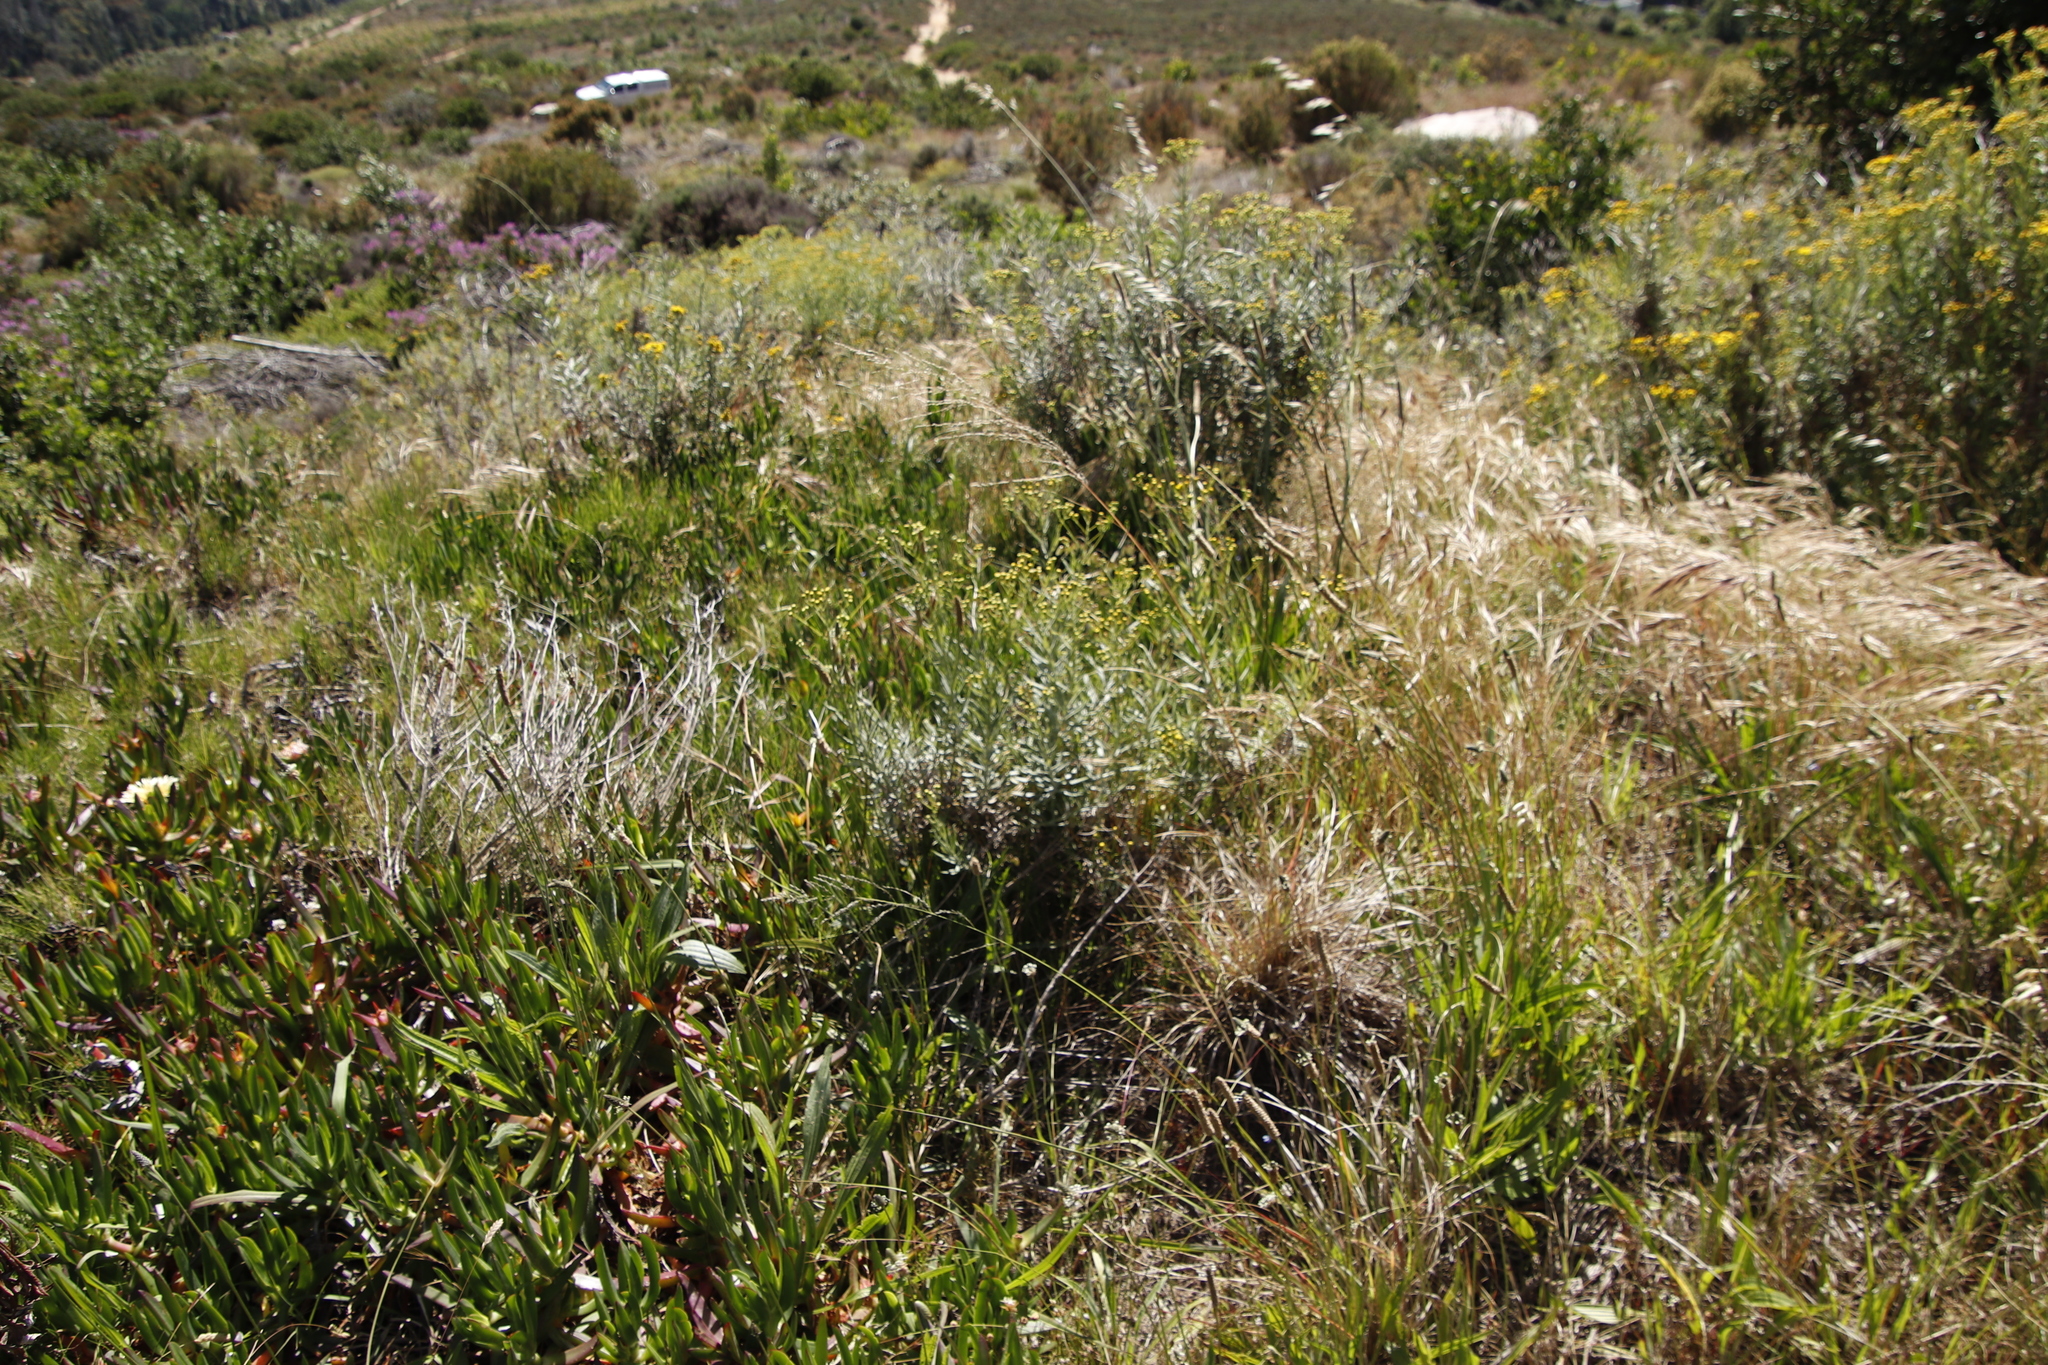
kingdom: Plantae
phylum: Tracheophyta
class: Magnoliopsida
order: Asterales
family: Asteraceae
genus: Senecio
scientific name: Senecio pterophorus
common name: Shoddy ragwort
